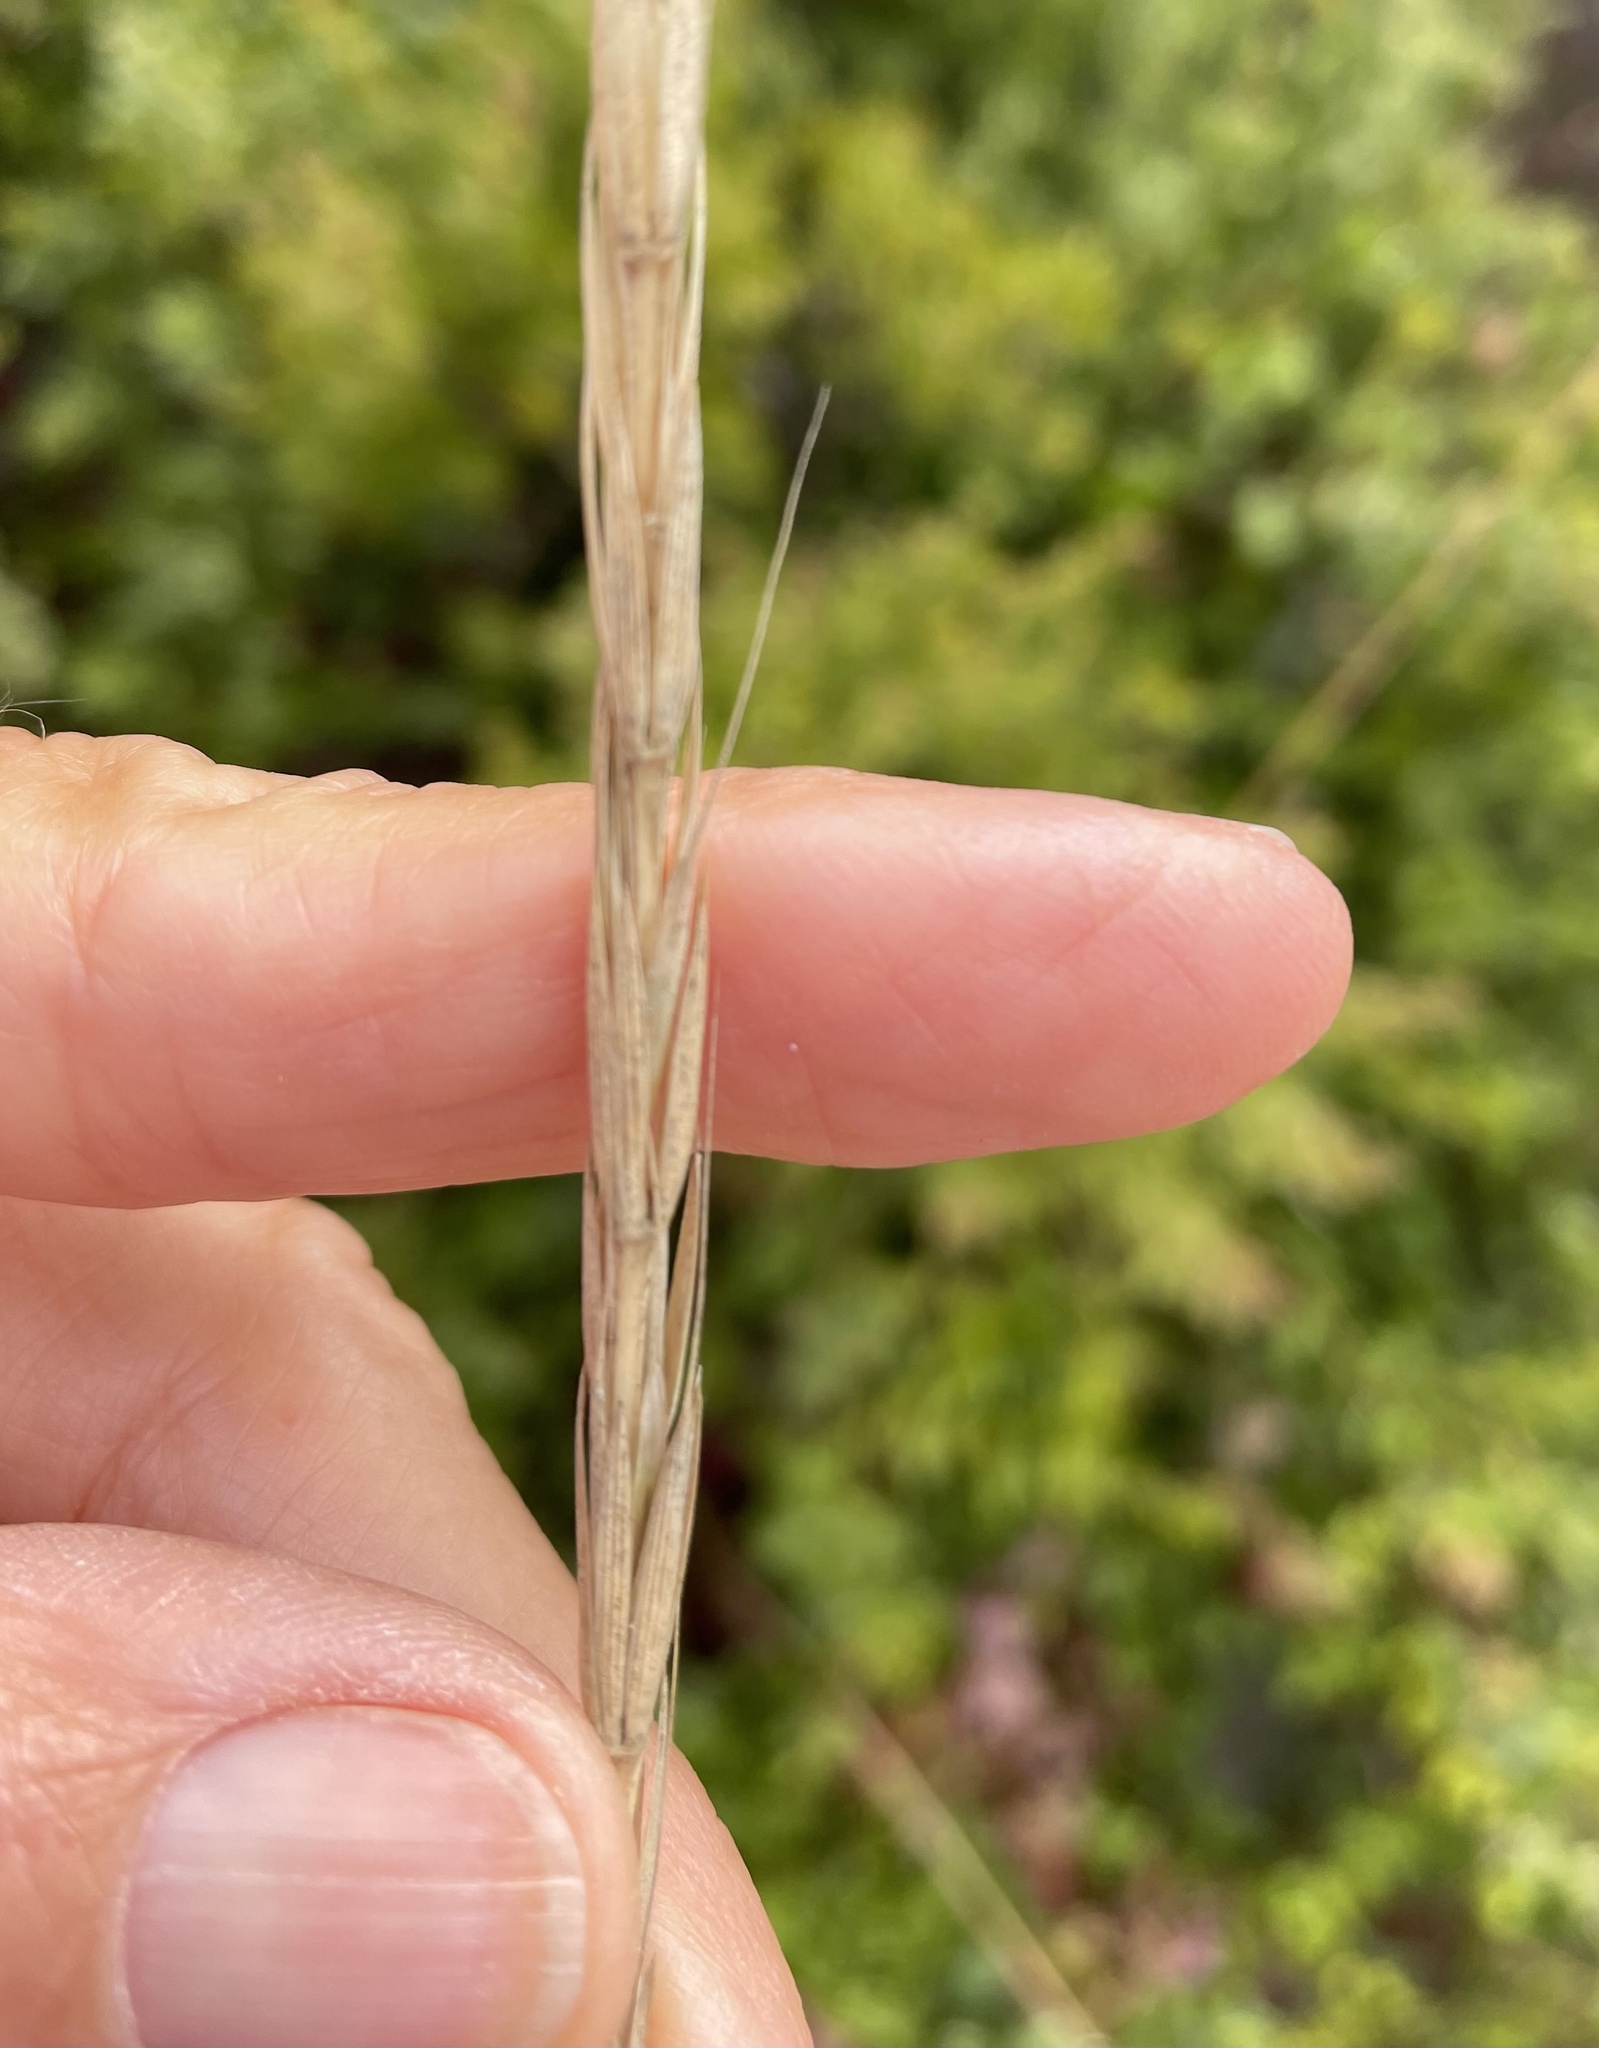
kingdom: Plantae
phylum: Tracheophyta
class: Liliopsida
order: Poales
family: Poaceae
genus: Elymus
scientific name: Elymus glaucus
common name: Blue wild rye
